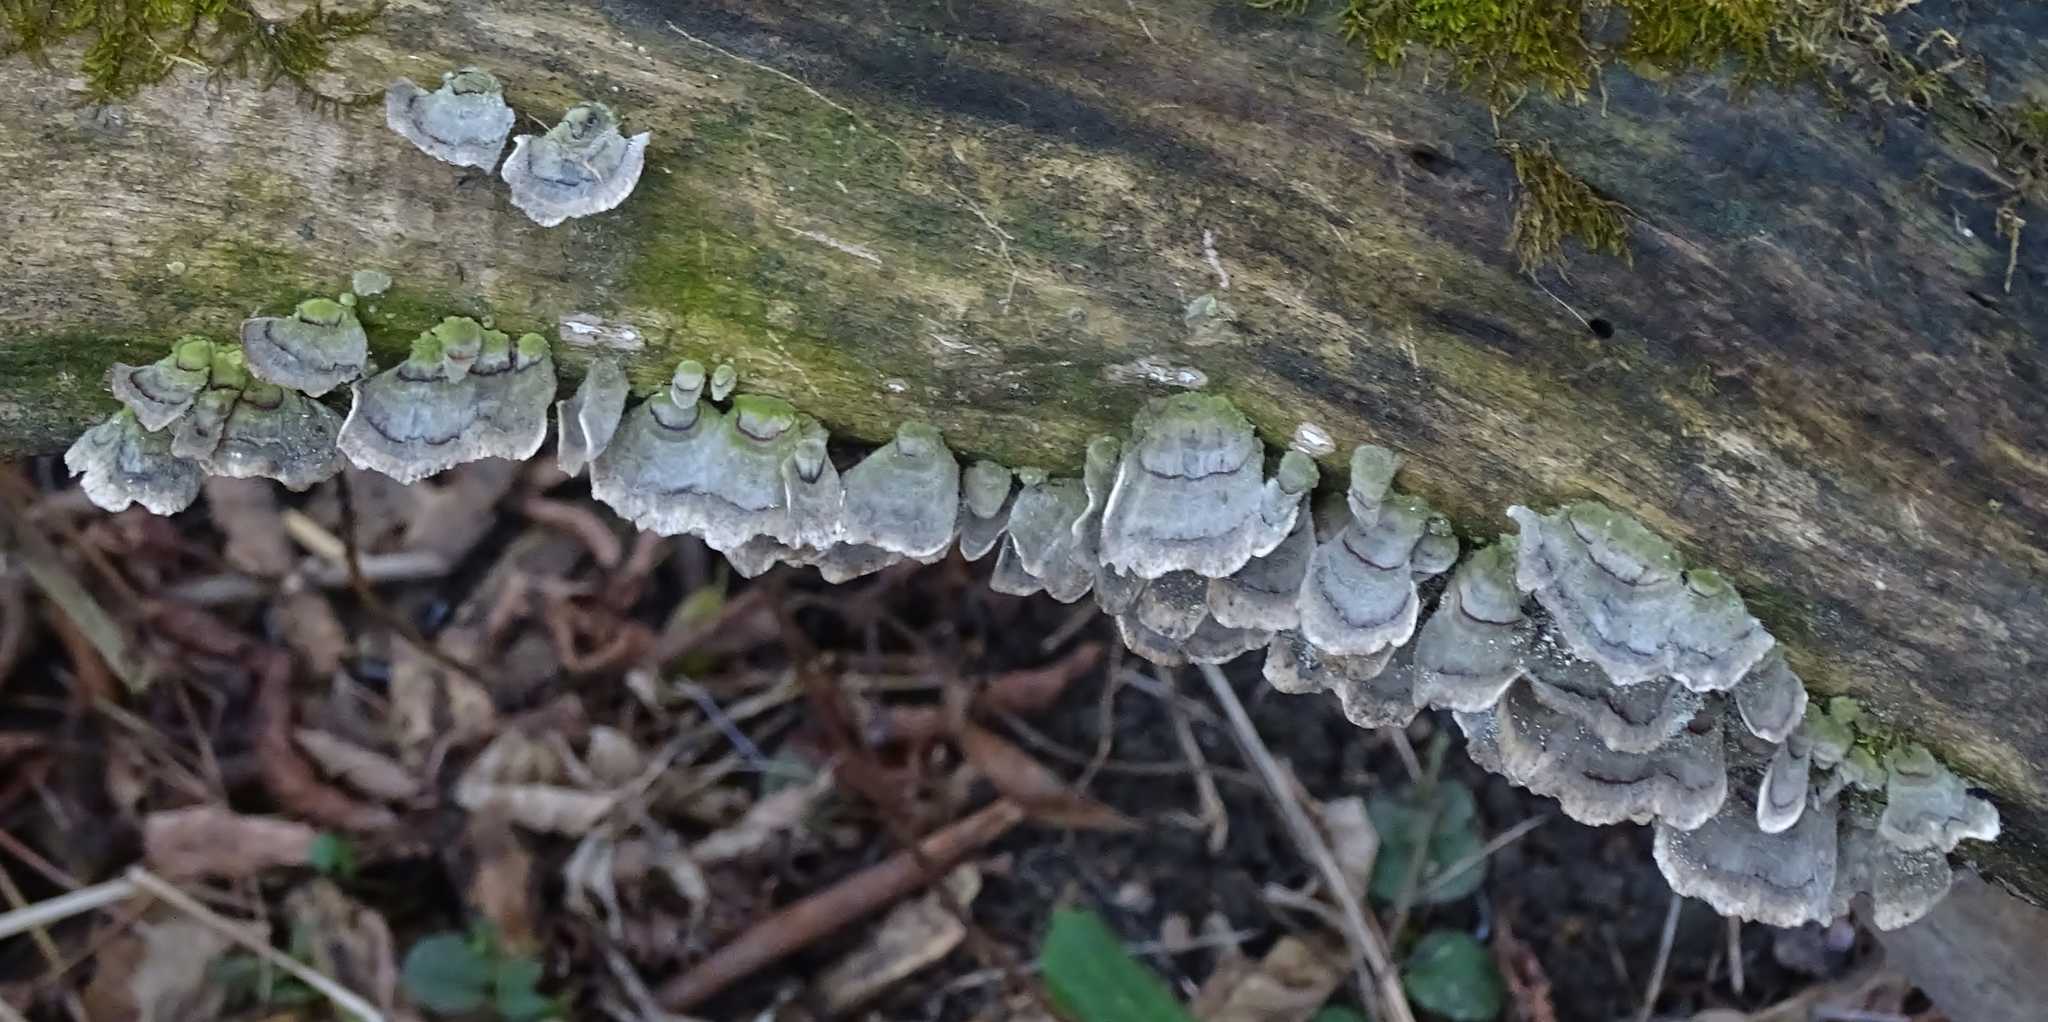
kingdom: Fungi
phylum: Basidiomycota
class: Agaricomycetes
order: Polyporales
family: Polyporaceae
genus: Trametes
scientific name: Trametes versicolor
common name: Turkeytail
